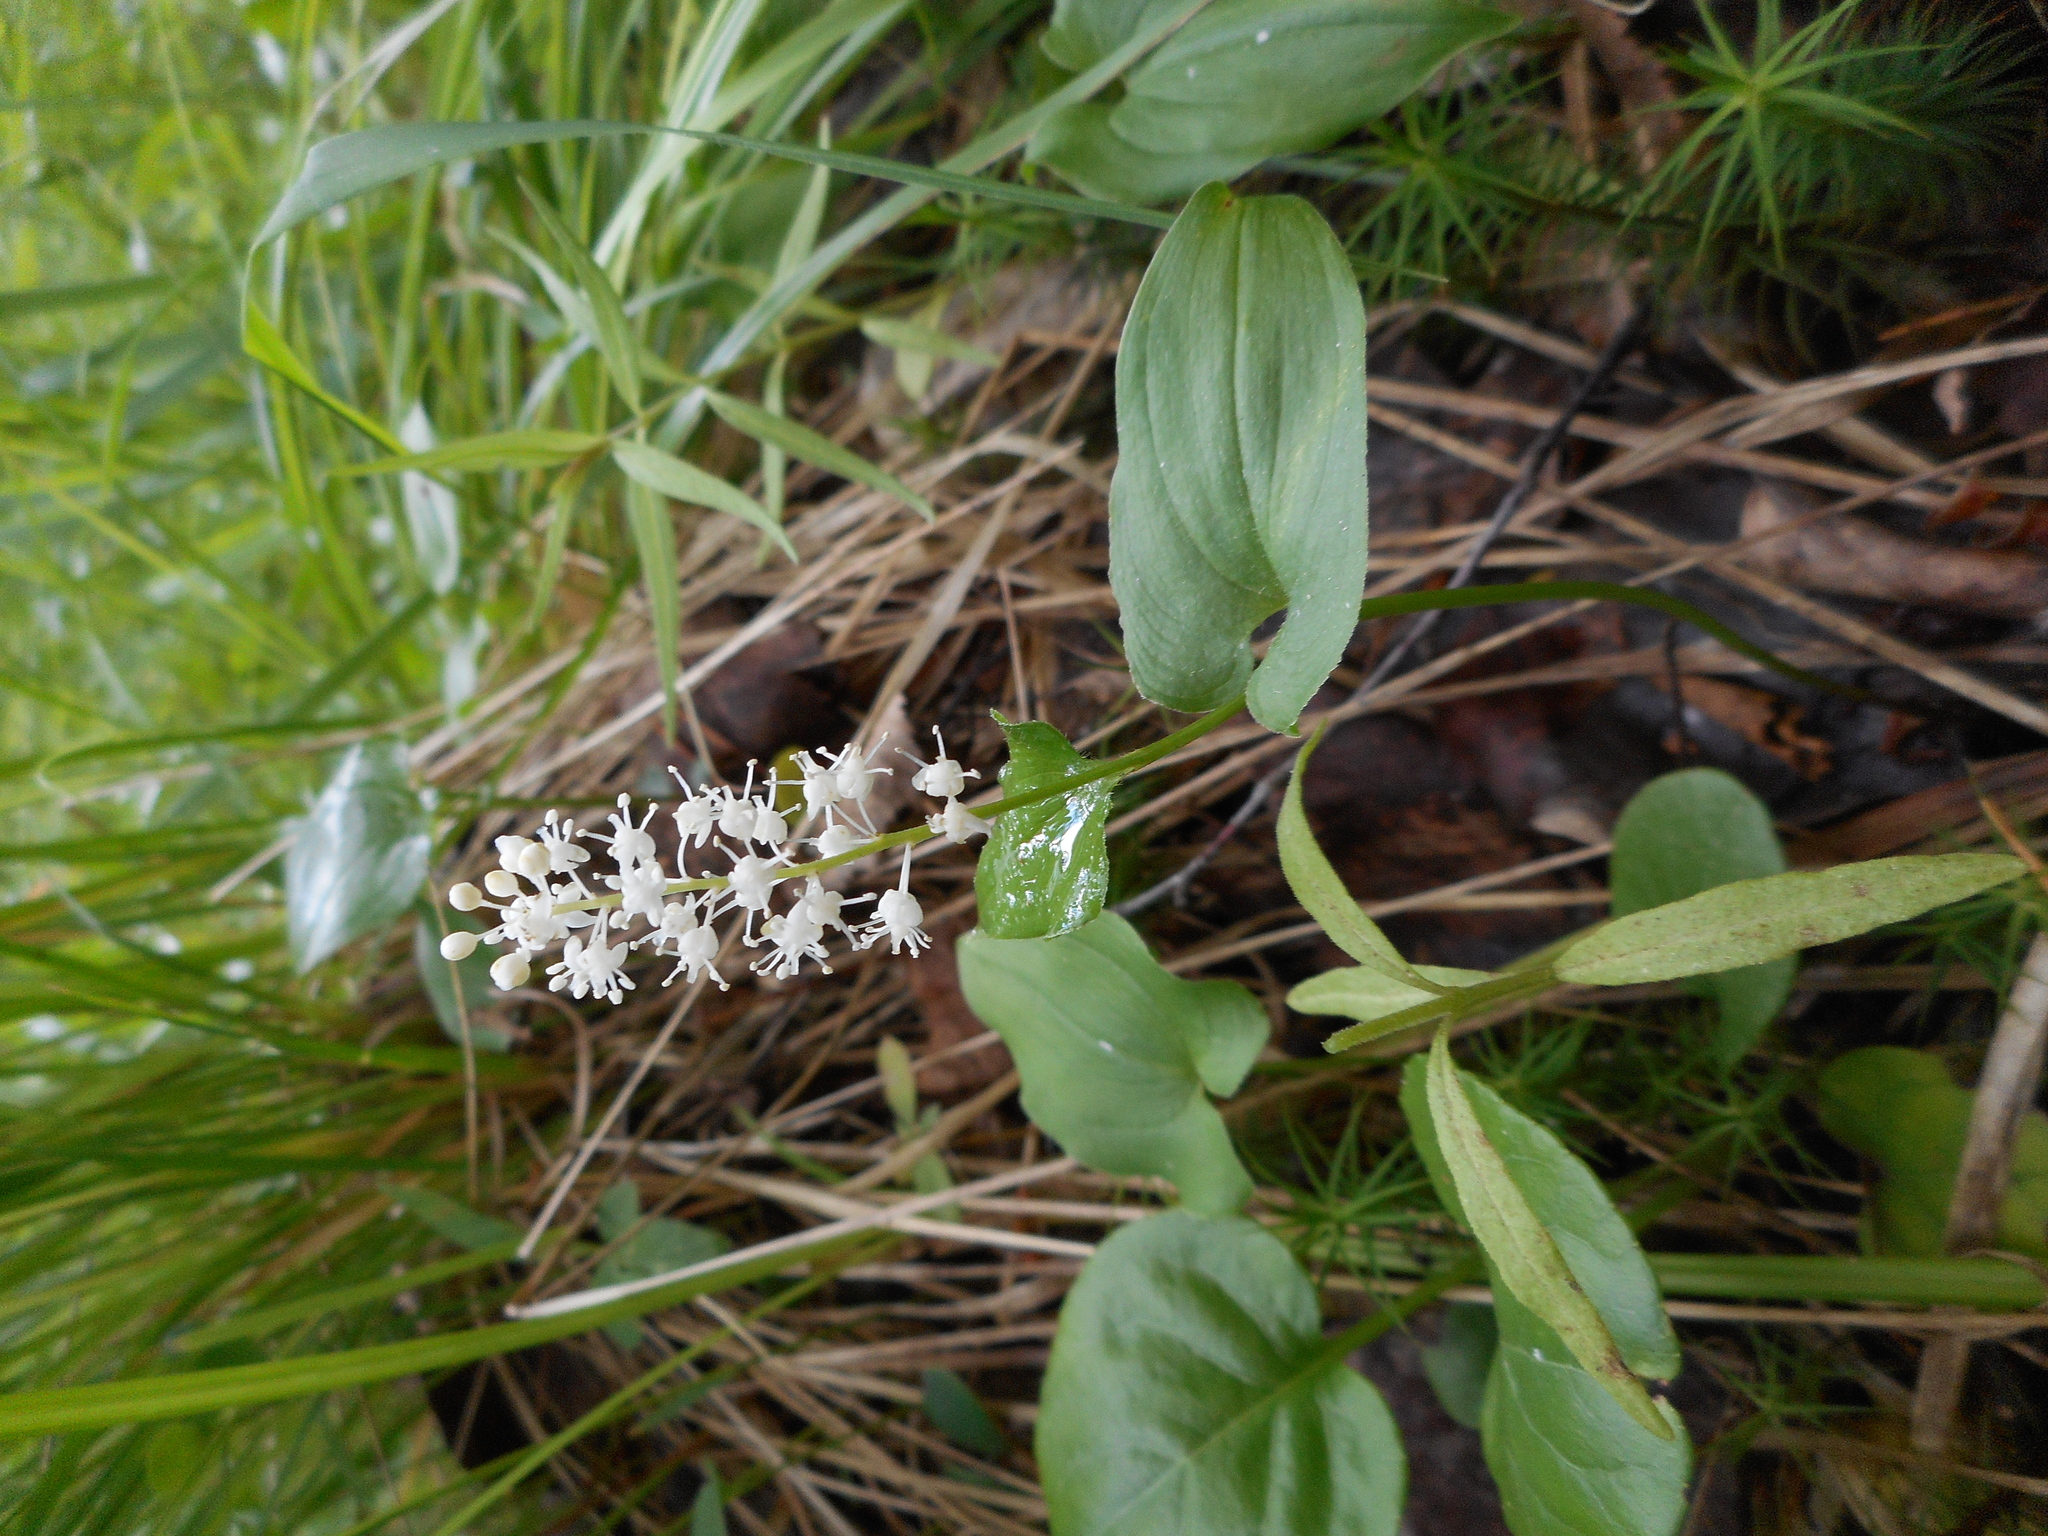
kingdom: Plantae
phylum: Tracheophyta
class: Liliopsida
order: Asparagales
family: Asparagaceae
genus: Maianthemum
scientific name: Maianthemum bifolium
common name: May lily
